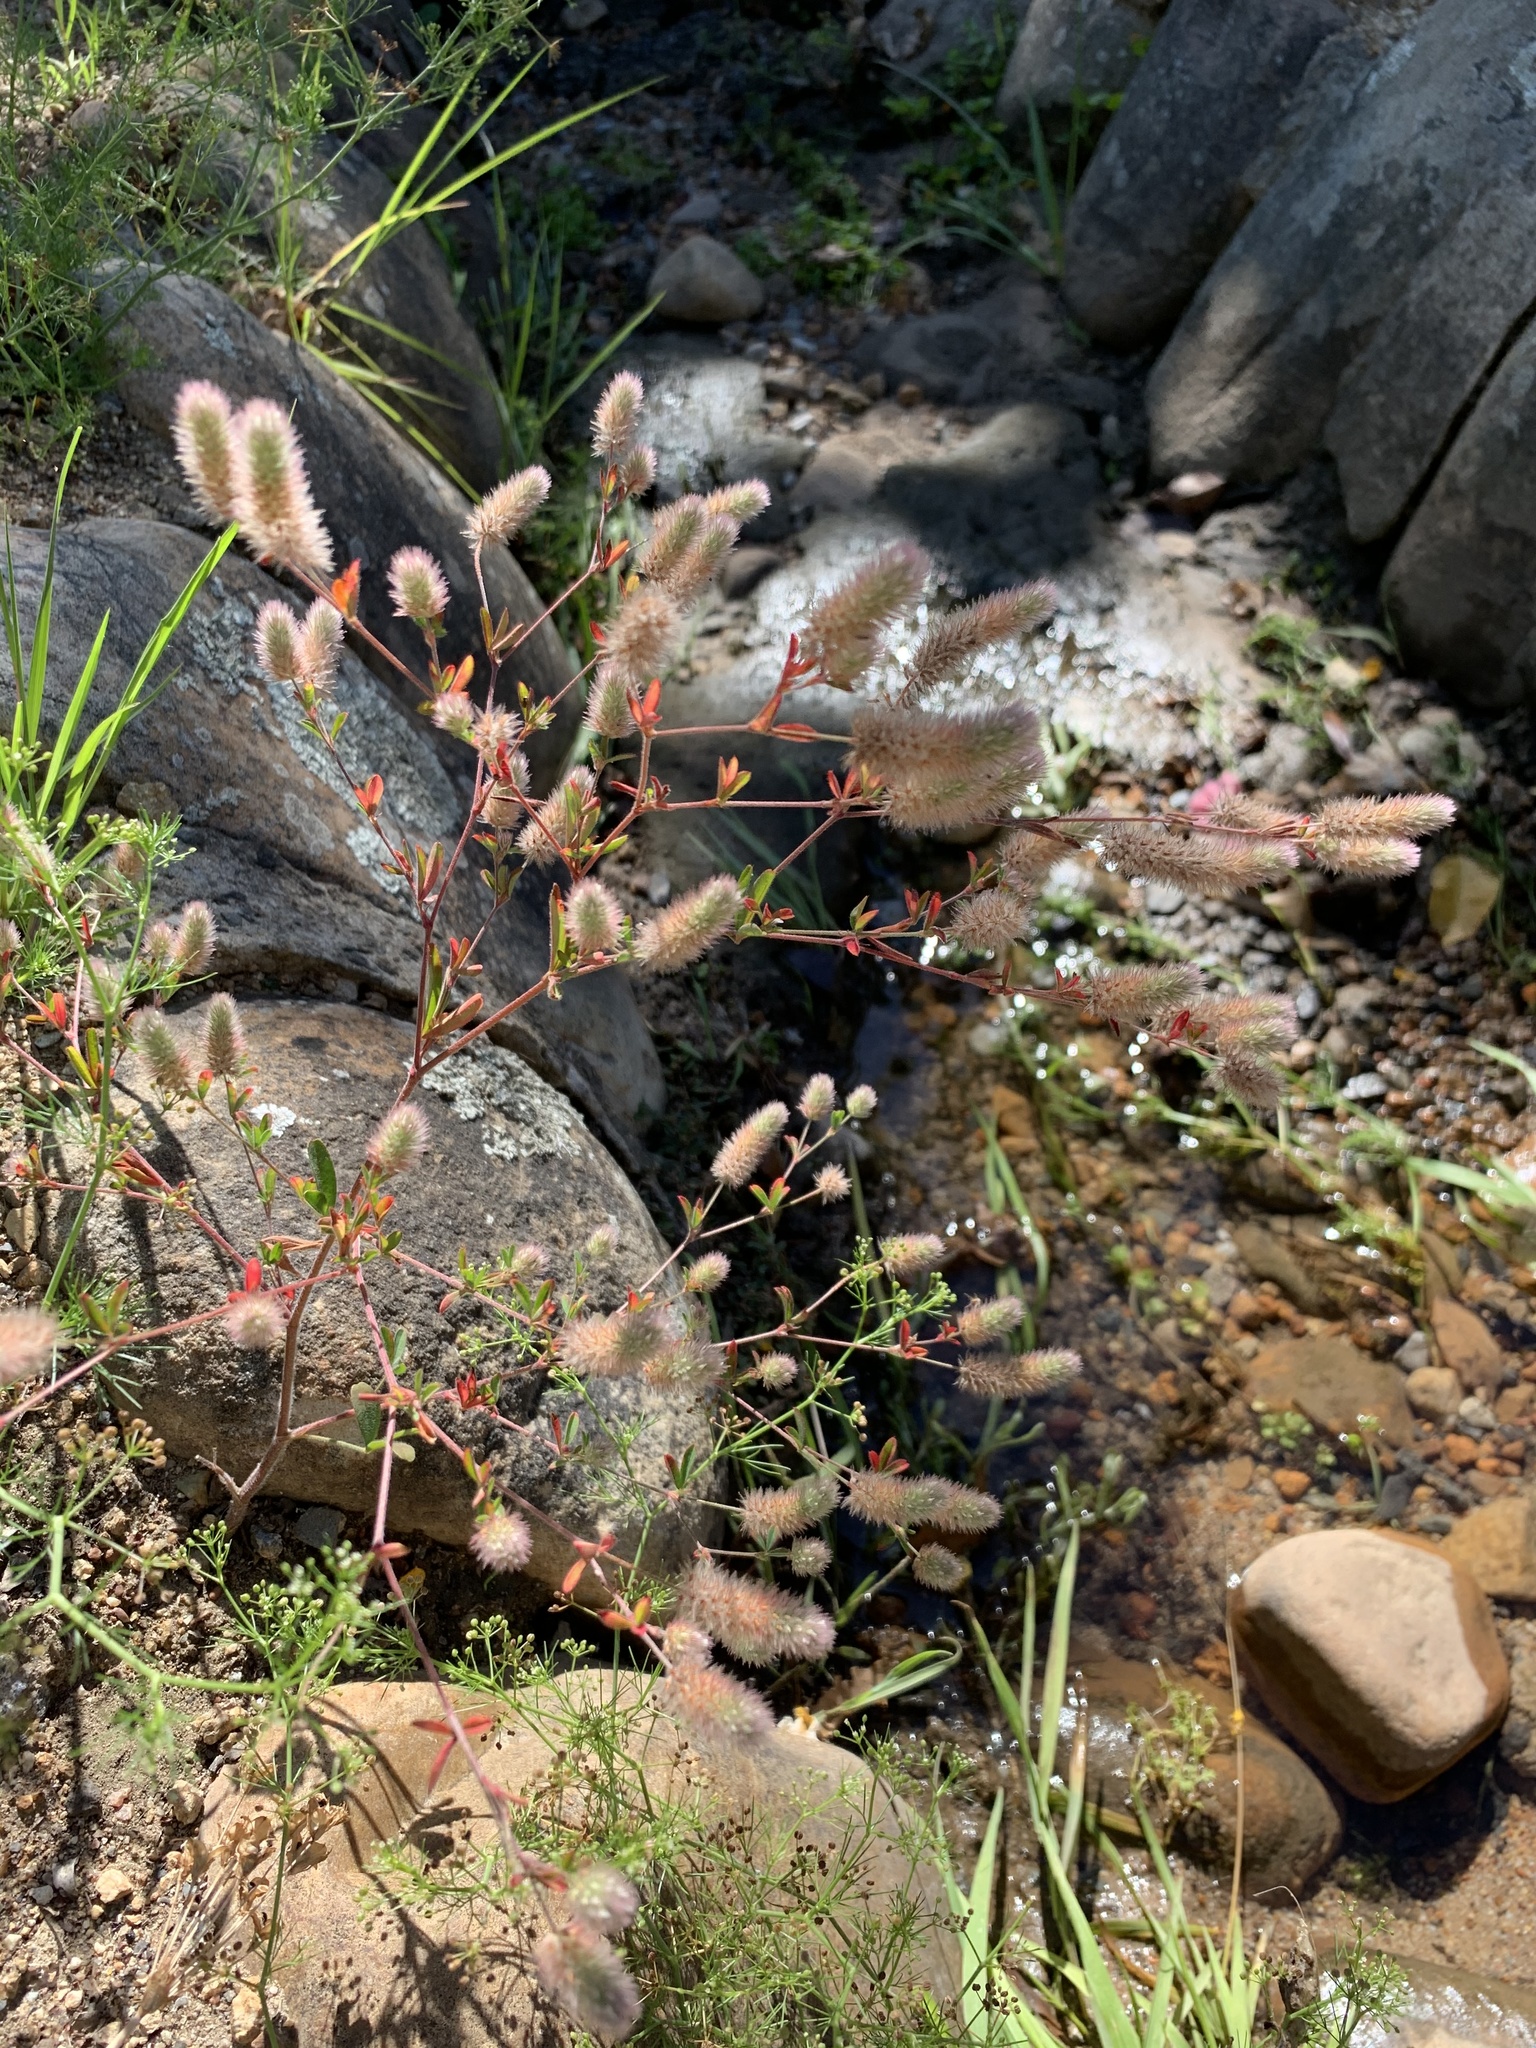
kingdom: Plantae
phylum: Tracheophyta
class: Magnoliopsida
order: Fabales
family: Fabaceae
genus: Trifolium
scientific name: Trifolium arvense
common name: Hare's-foot clover
